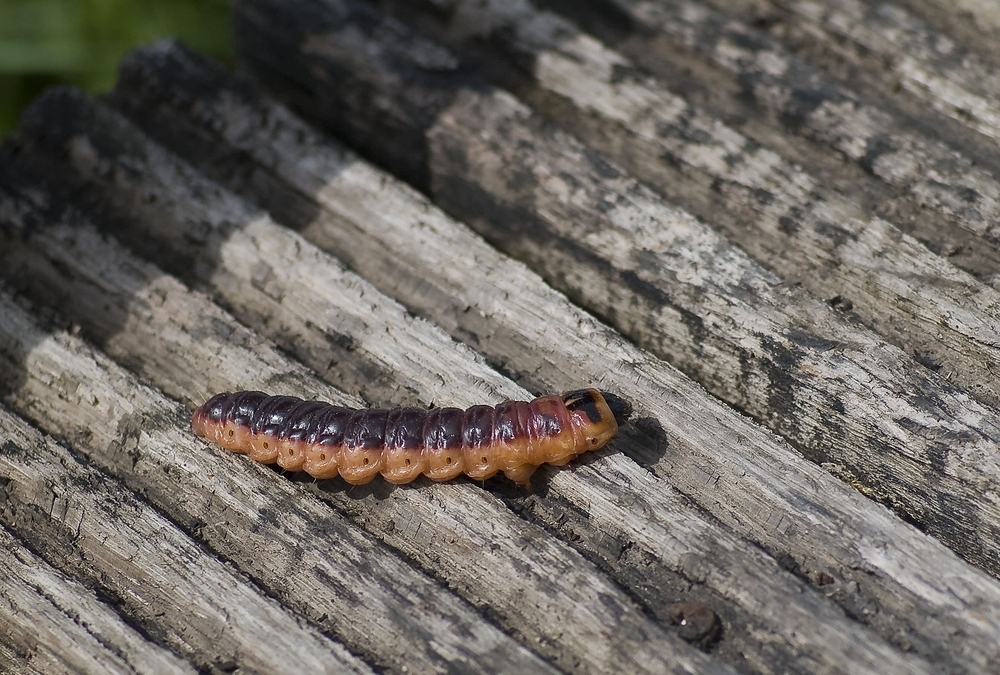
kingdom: Animalia
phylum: Arthropoda
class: Insecta
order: Lepidoptera
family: Cossidae
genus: Cossus
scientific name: Cossus cossus
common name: Goat moth
